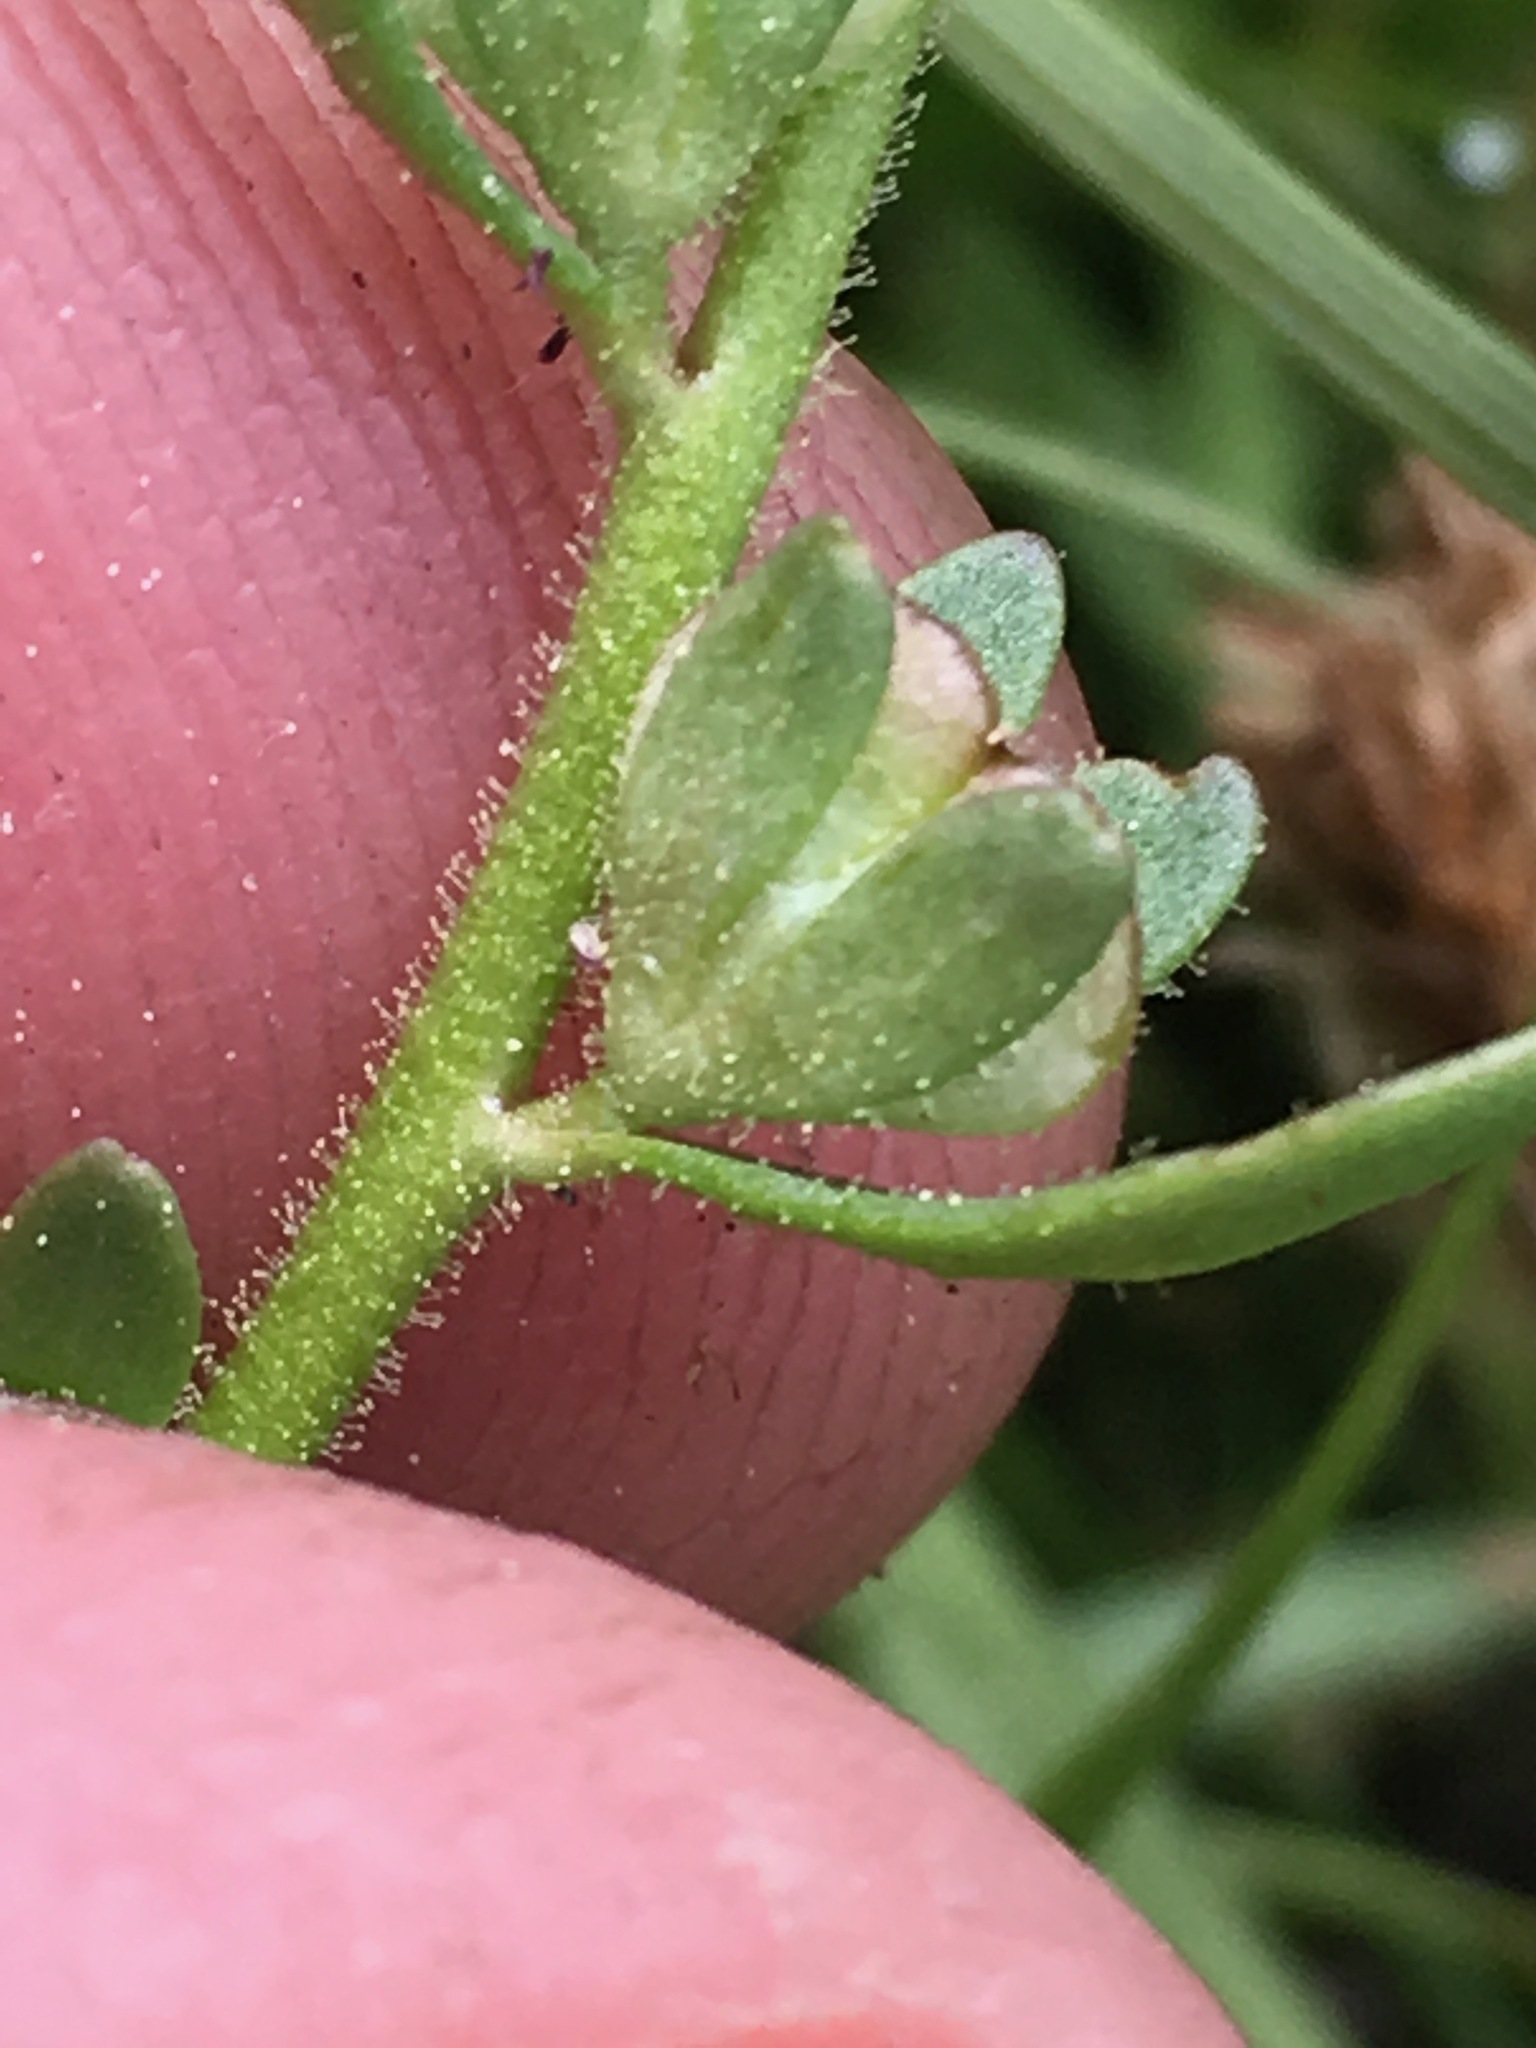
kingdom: Plantae
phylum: Tracheophyta
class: Magnoliopsida
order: Lamiales
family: Plantaginaceae
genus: Veronica
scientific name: Veronica peregrina
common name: Neckweed
